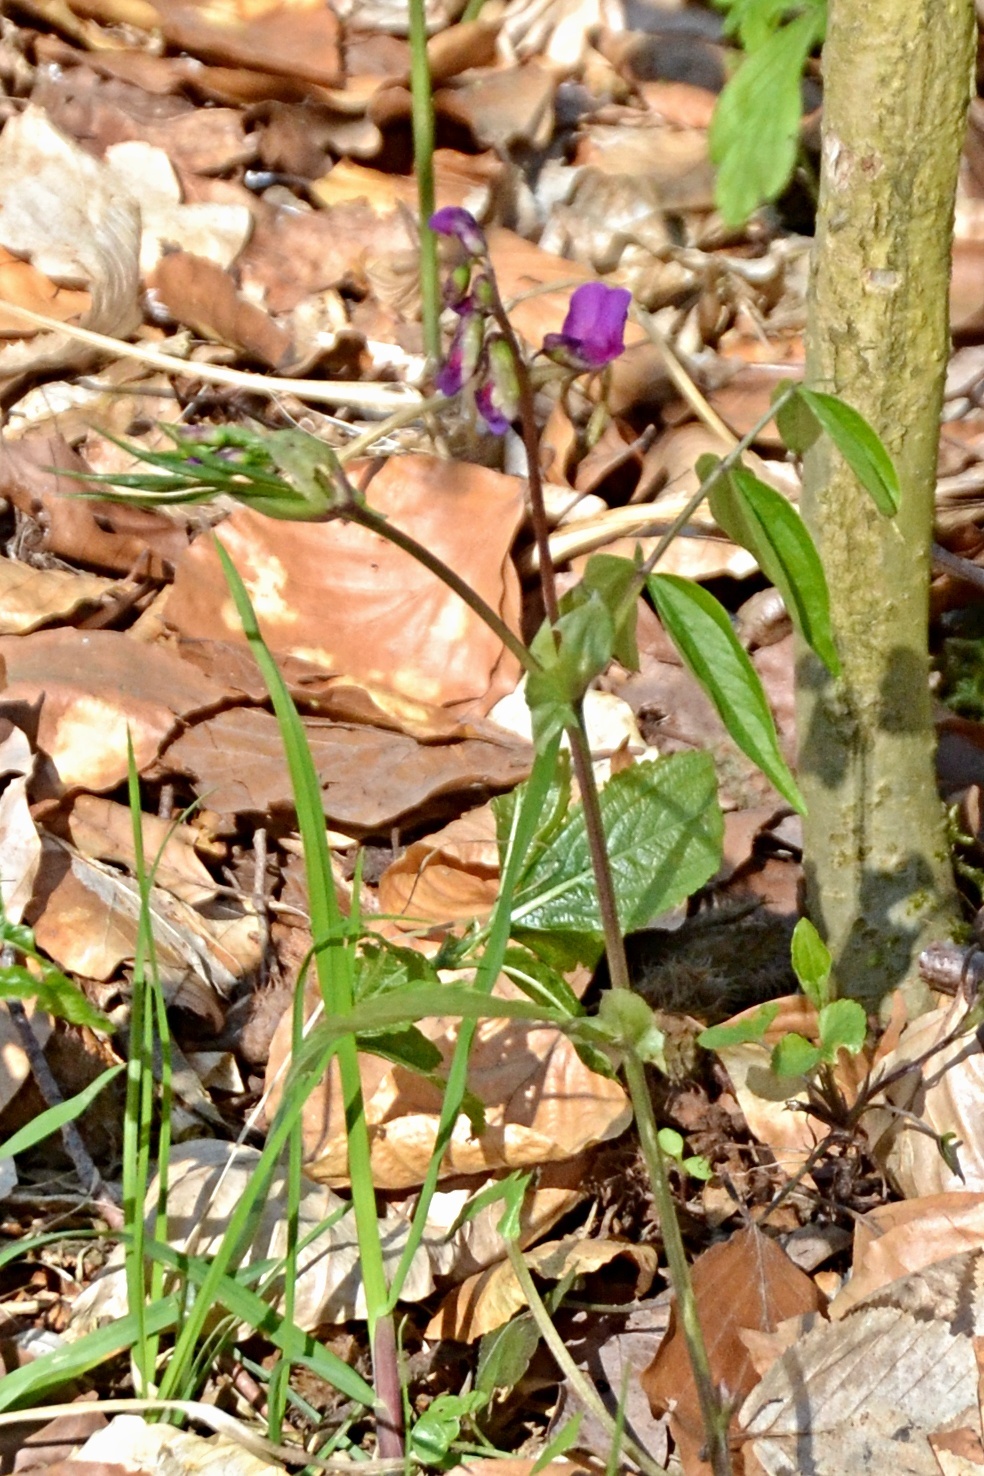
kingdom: Plantae
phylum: Tracheophyta
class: Magnoliopsida
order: Fabales
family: Fabaceae
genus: Lathyrus
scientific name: Lathyrus vernus
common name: Spring pea
